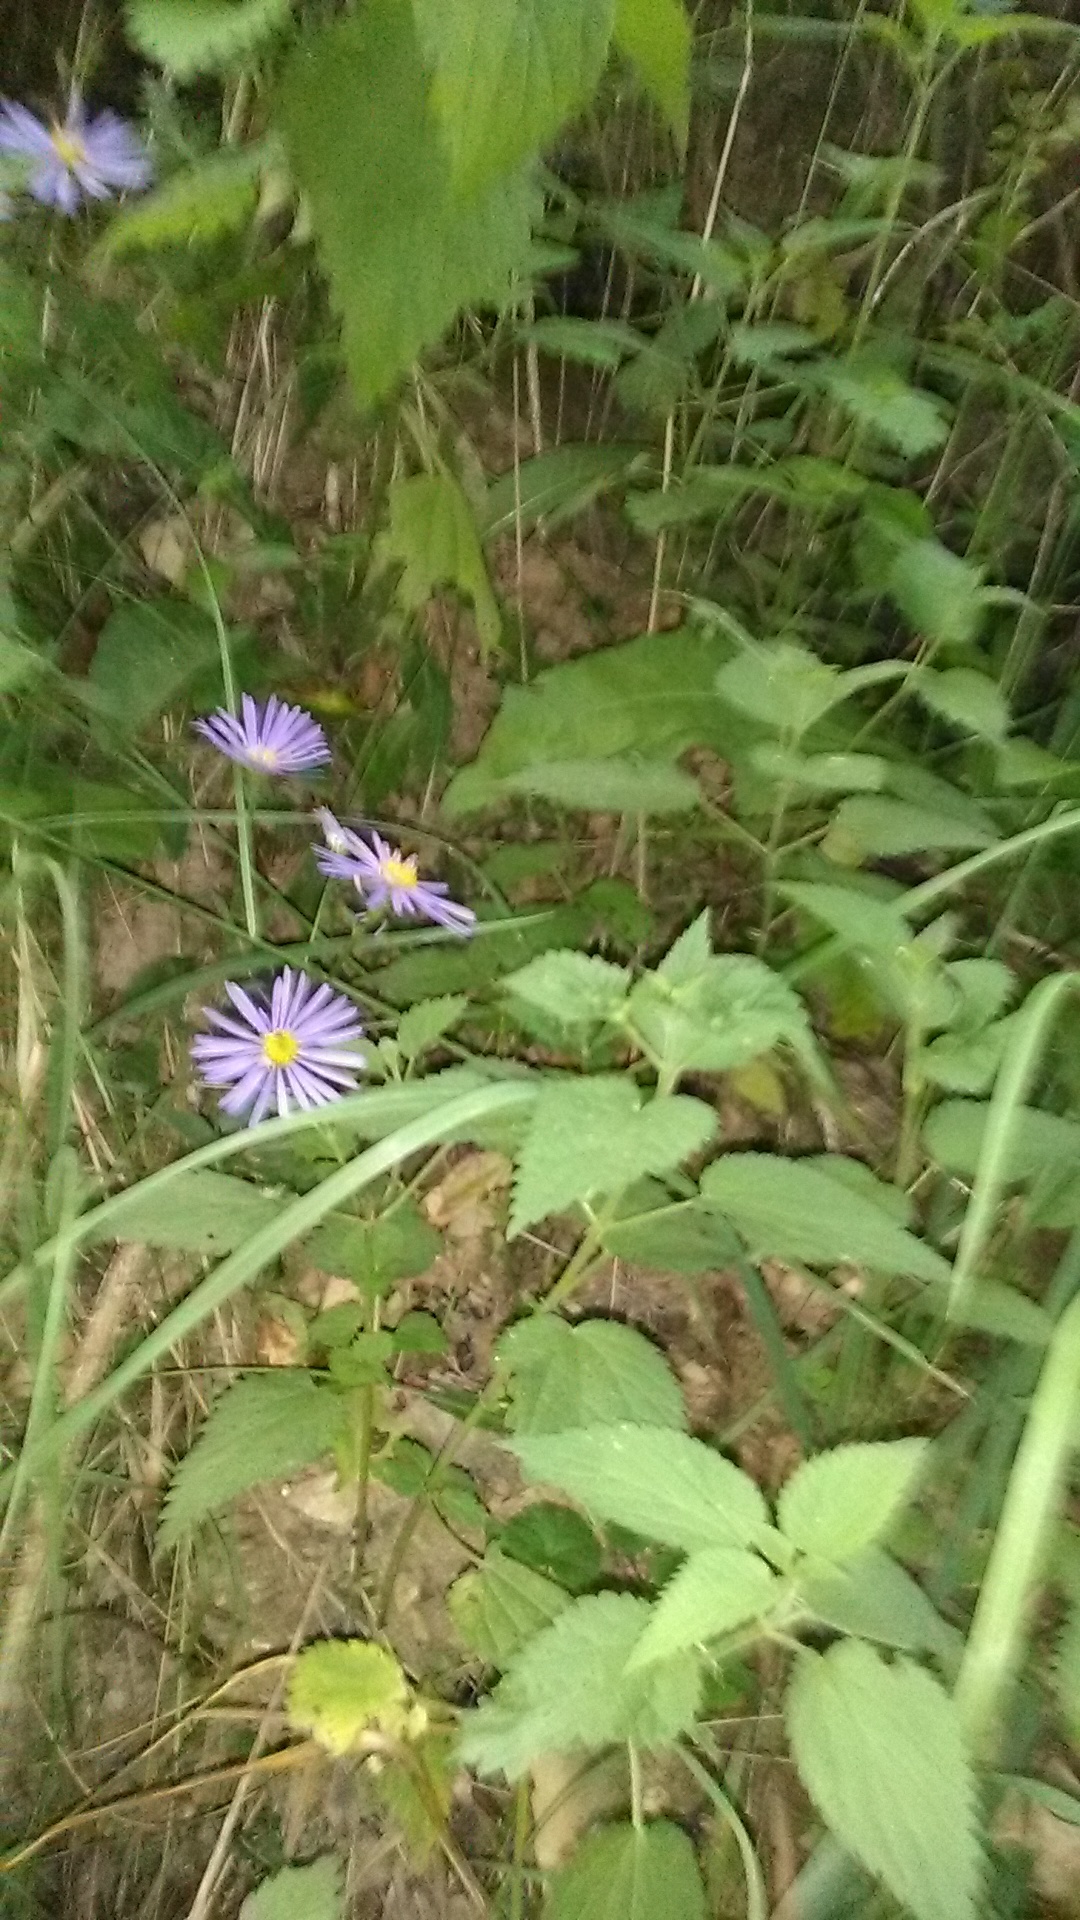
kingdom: Plantae
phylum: Tracheophyta
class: Magnoliopsida
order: Asterales
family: Asteraceae
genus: Aster
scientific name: Aster amellus
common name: European michaelmas daisy
